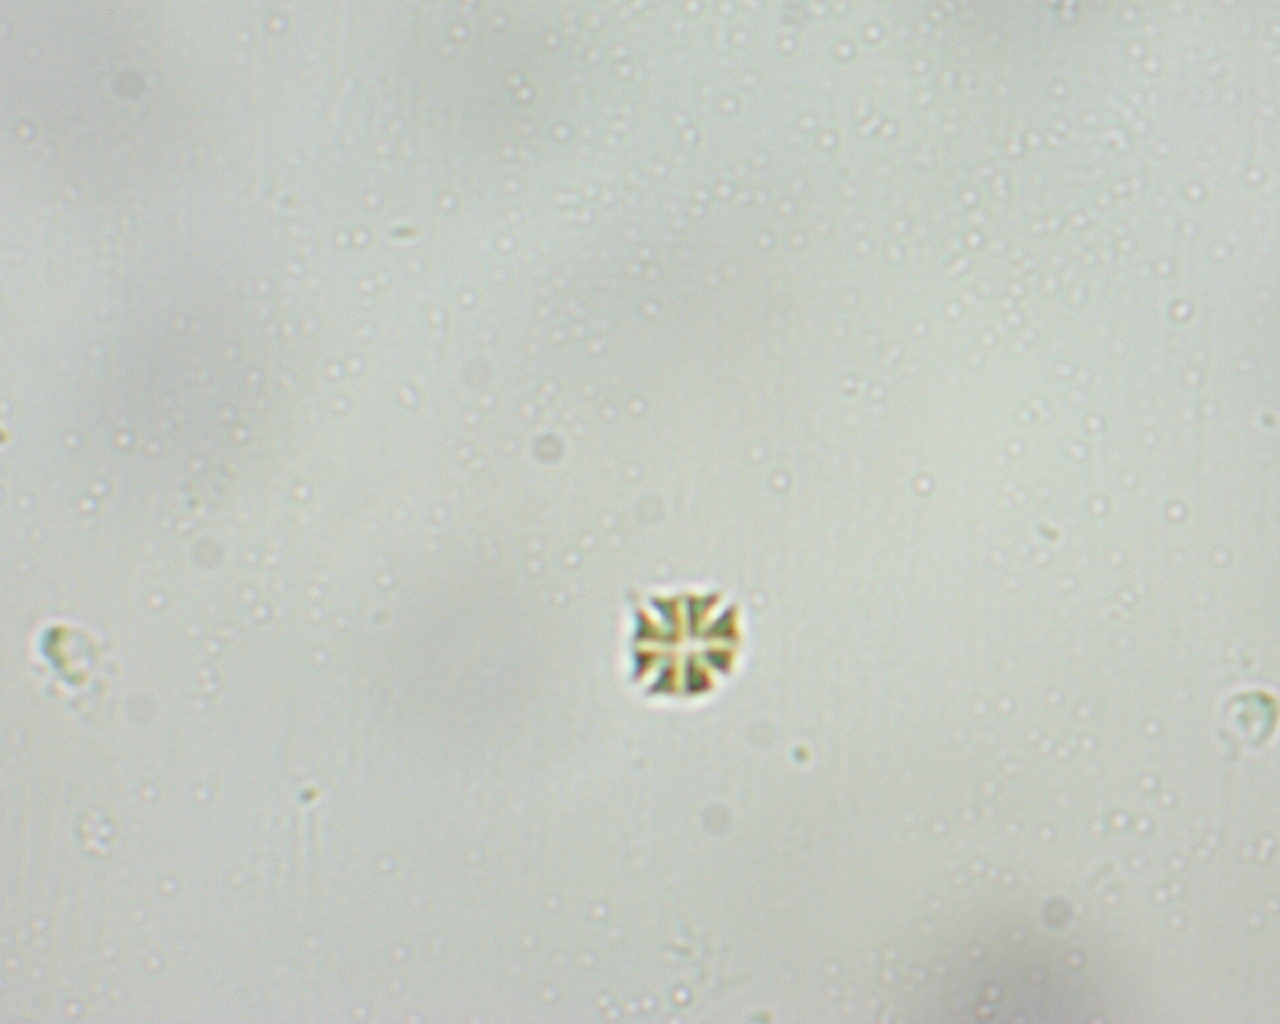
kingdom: Plantae
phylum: Chlorophyta
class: Chlorophyceae
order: Sphaeropleales
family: Hydrodictyaceae
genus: Stauridium
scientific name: Stauridium tetras
